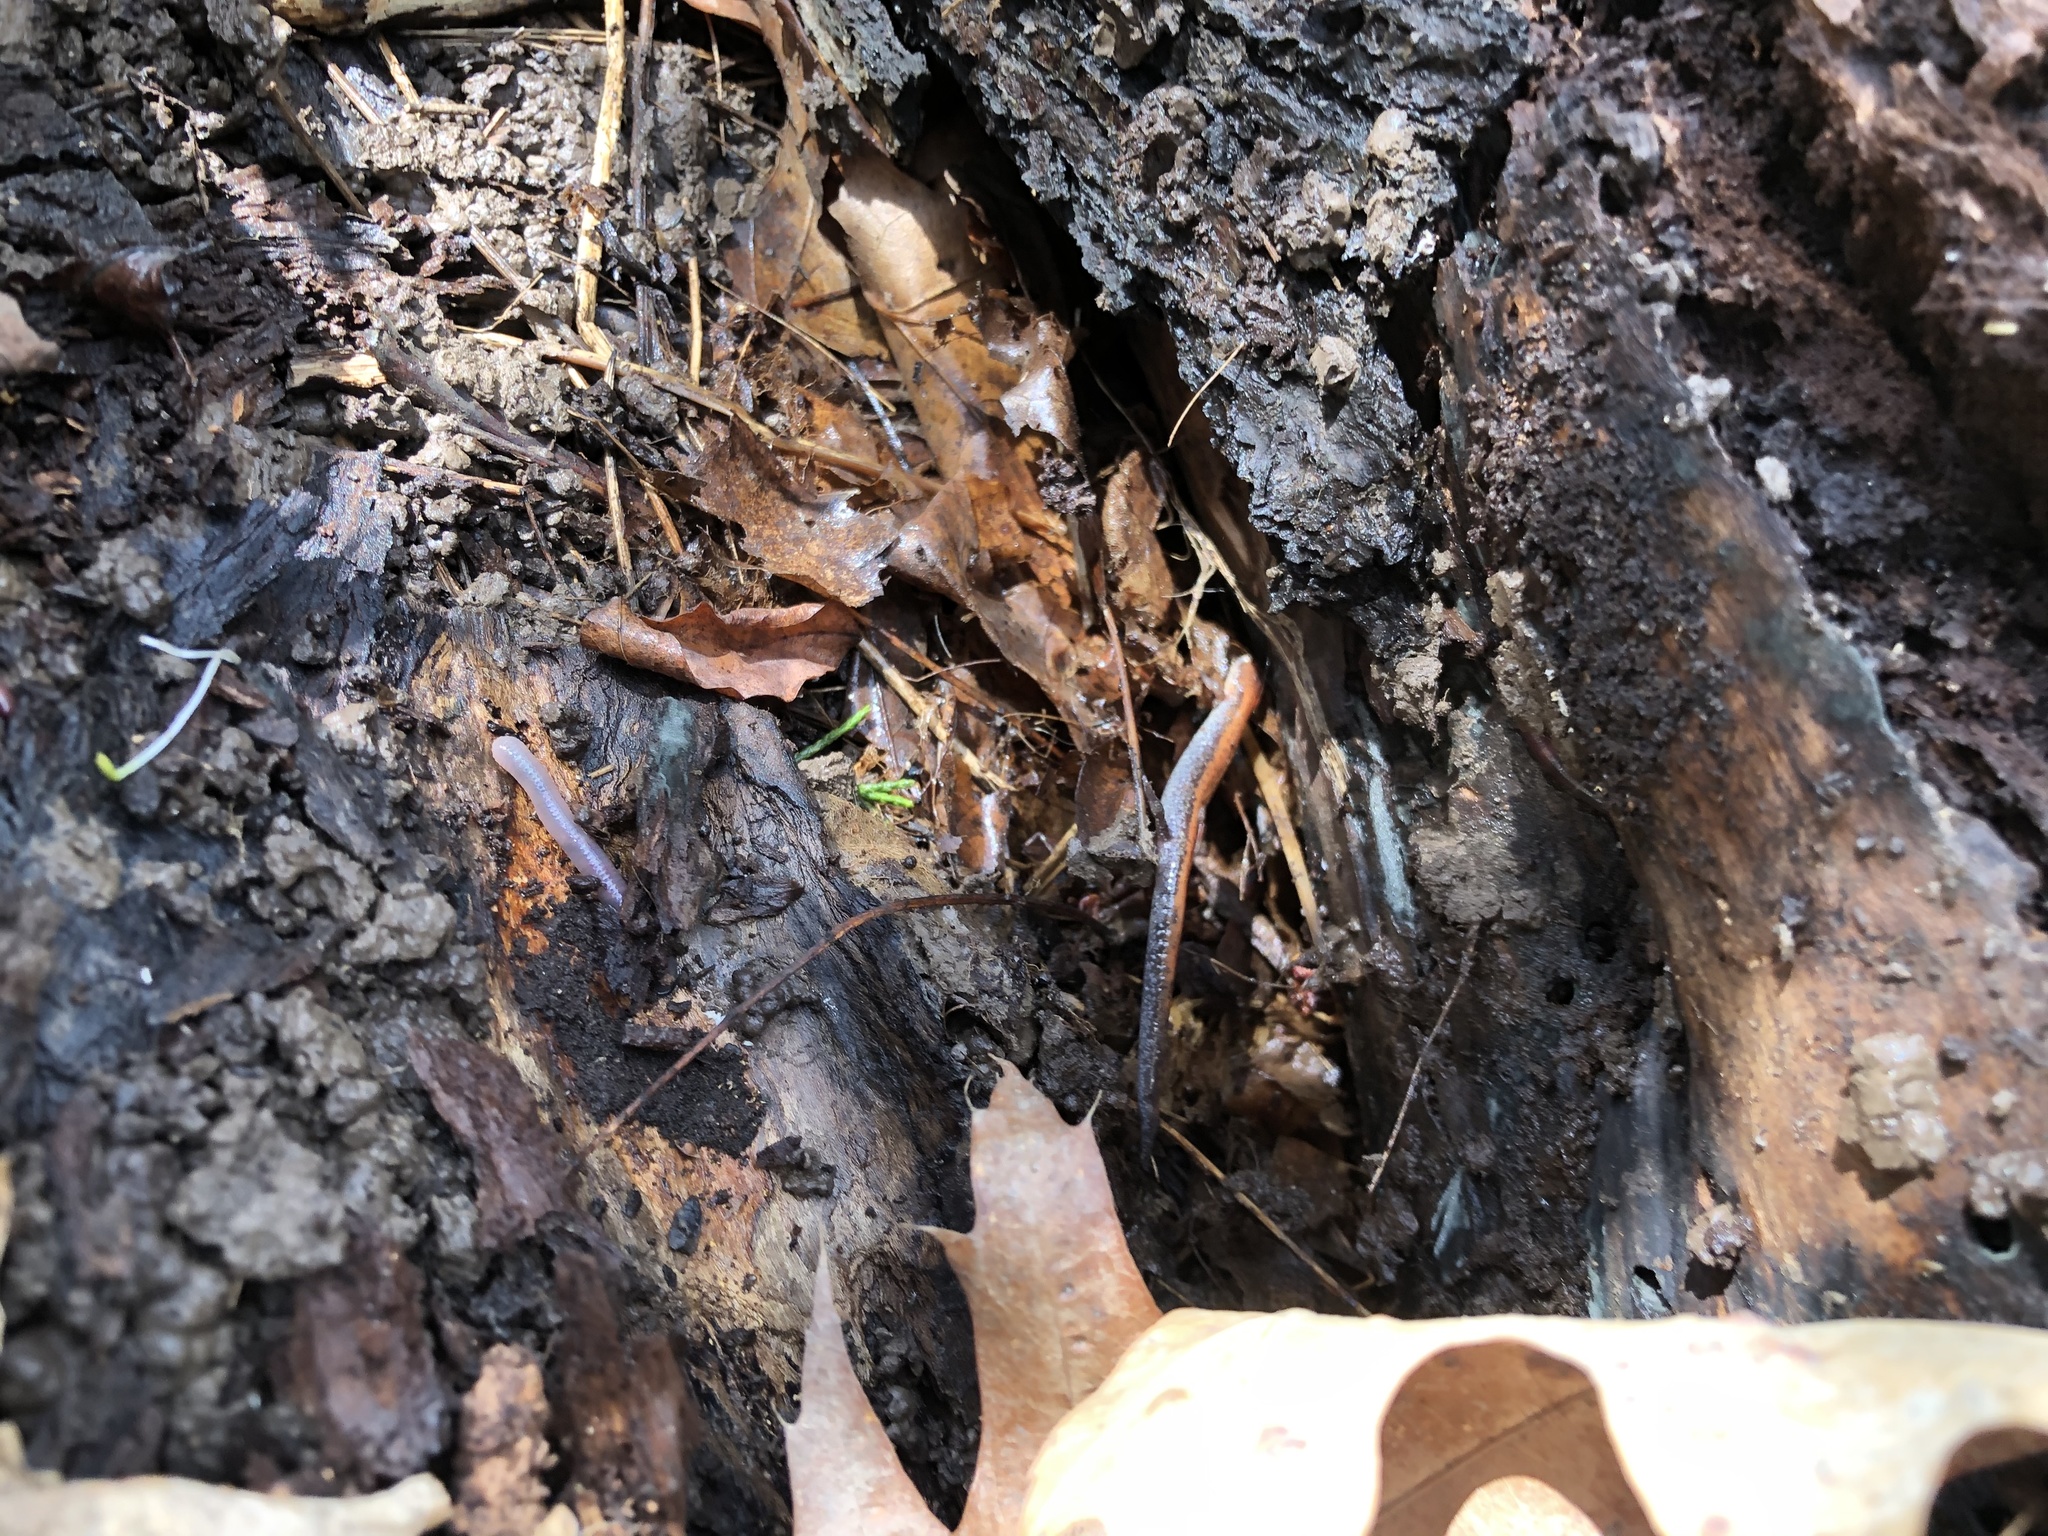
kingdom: Animalia
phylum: Chordata
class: Amphibia
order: Caudata
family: Plethodontidae
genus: Plethodon
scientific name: Plethodon cinereus
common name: Redback salamander
